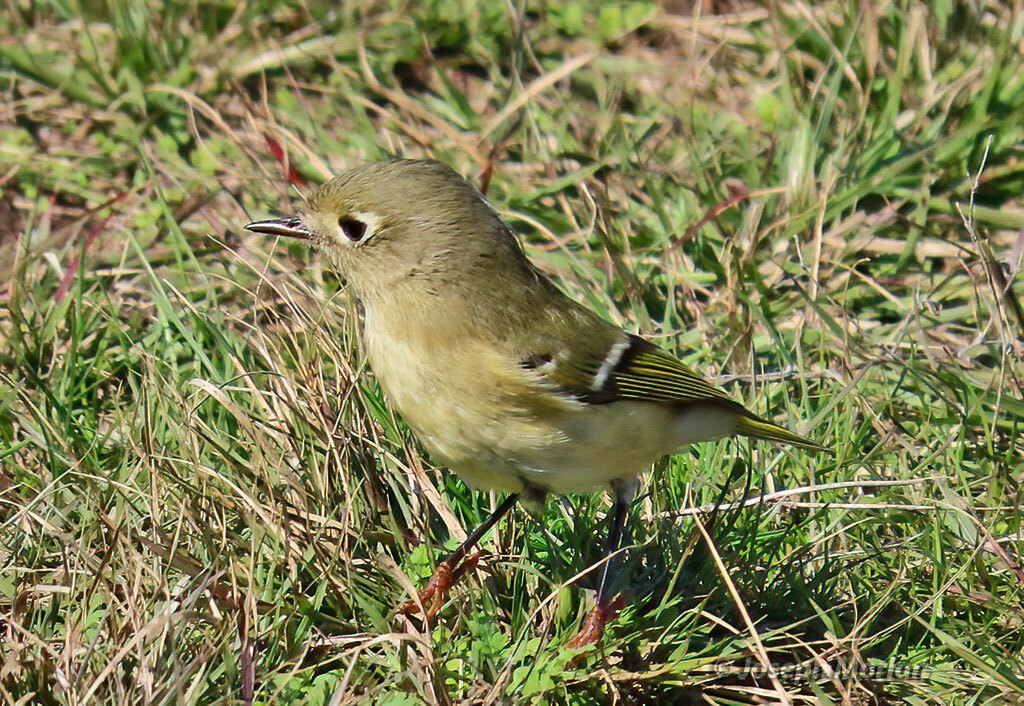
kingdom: Animalia
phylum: Chordata
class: Aves
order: Passeriformes
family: Regulidae
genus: Regulus
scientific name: Regulus calendula
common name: Ruby-crowned kinglet
